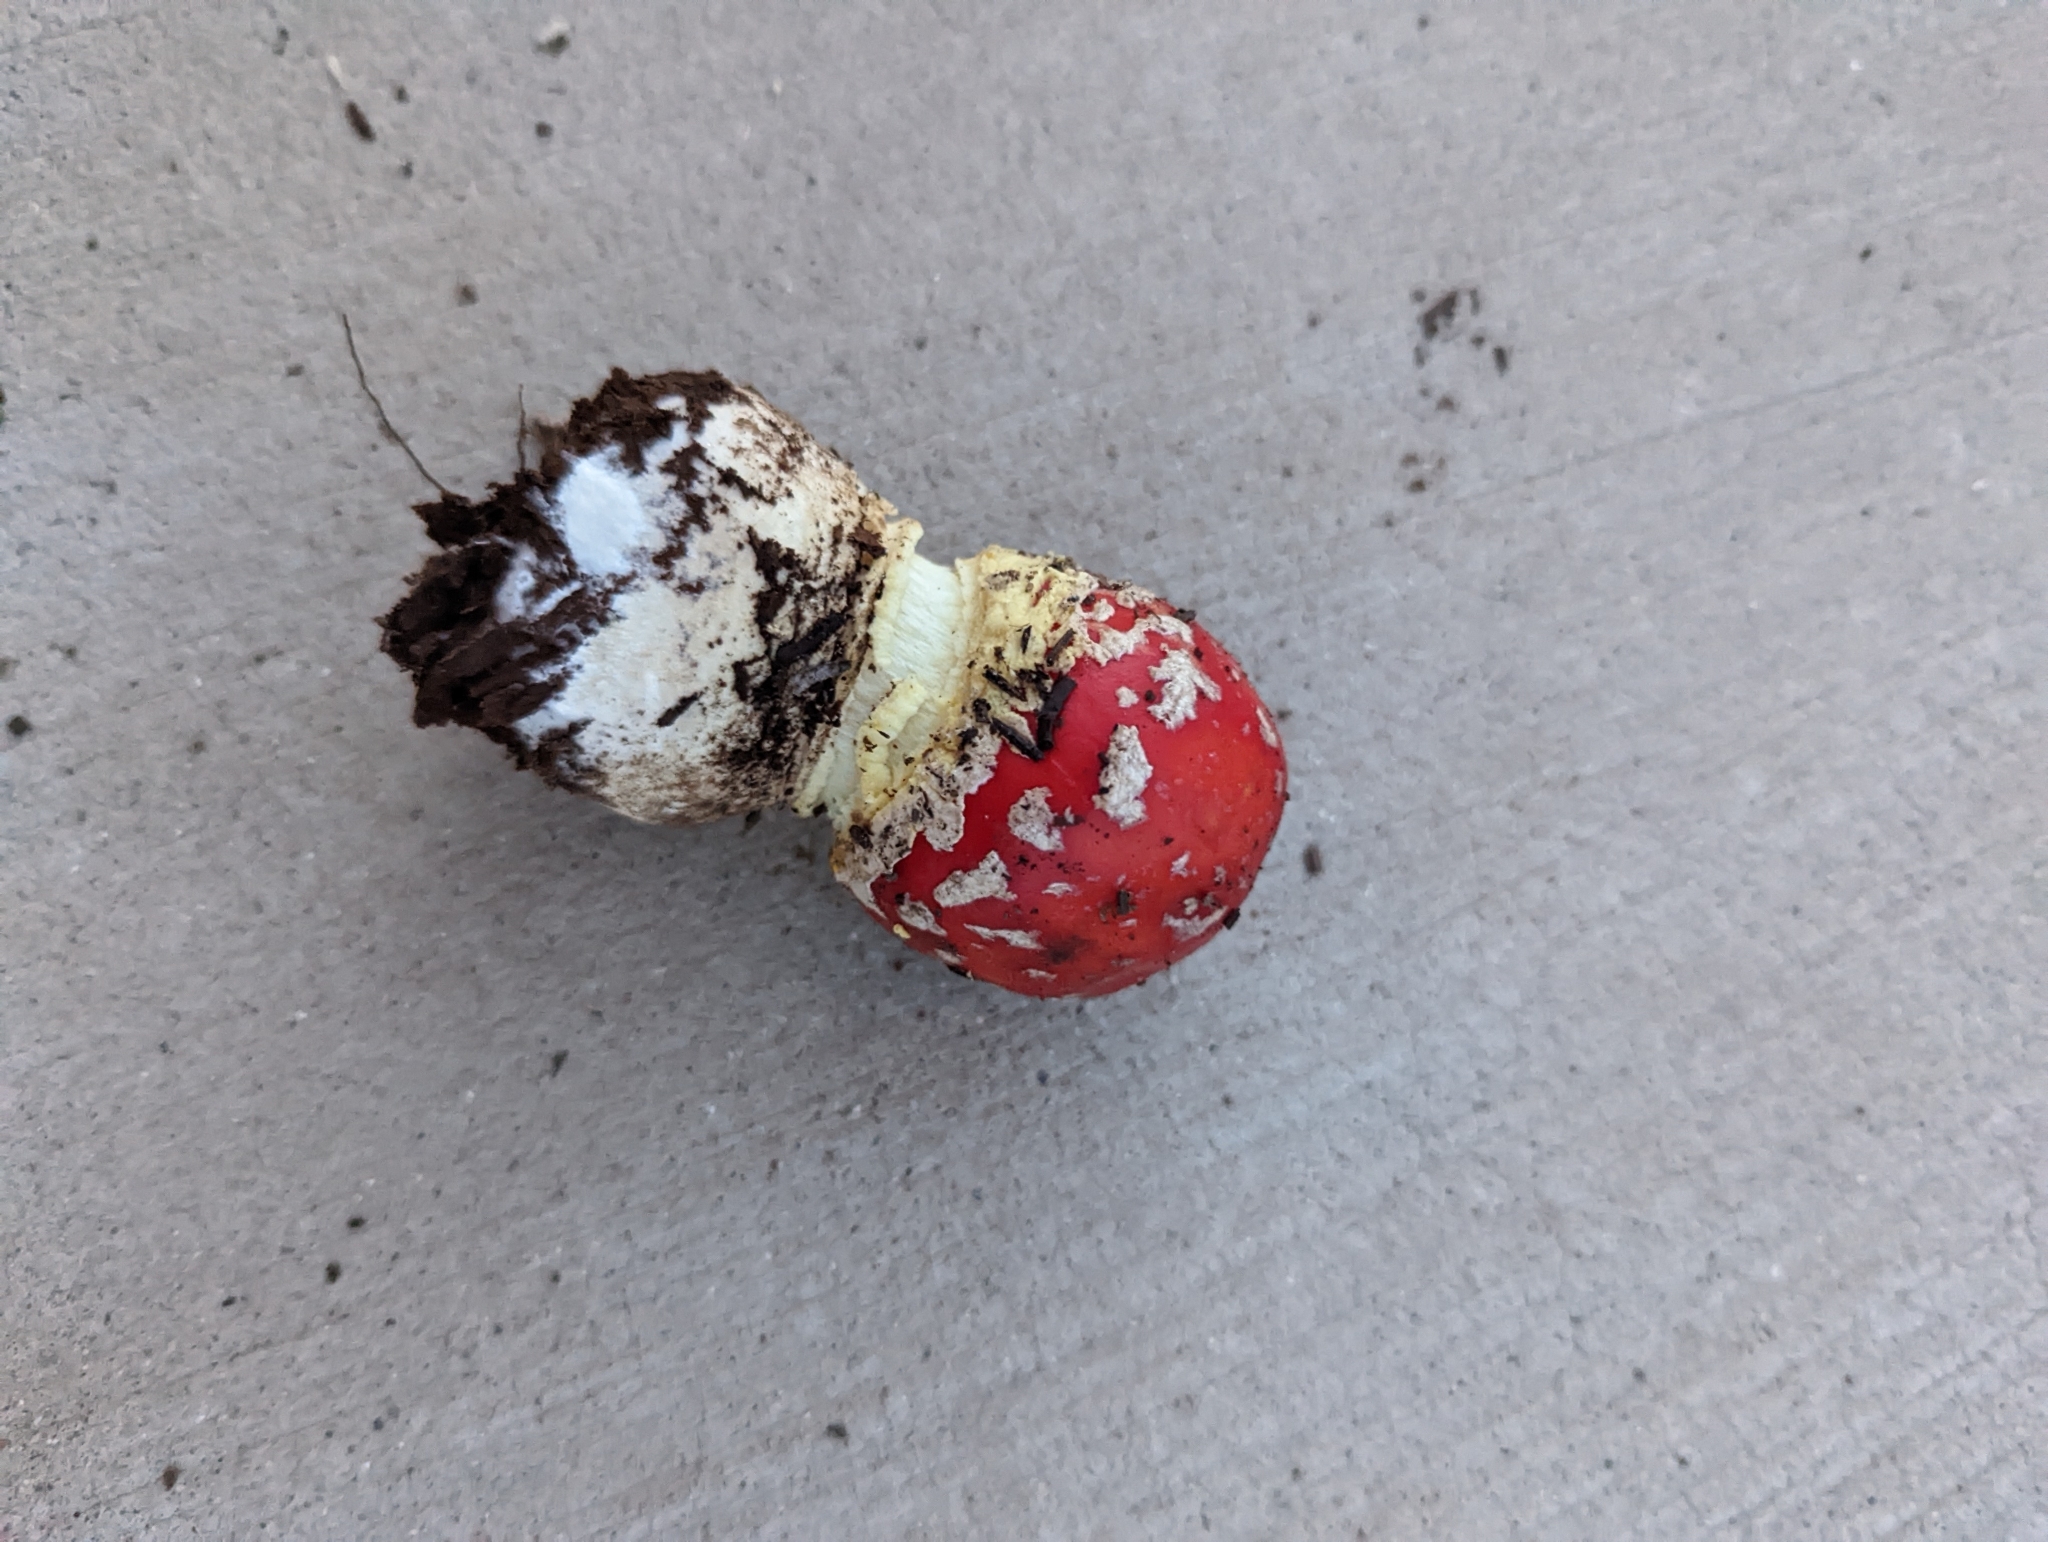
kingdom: Fungi
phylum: Basidiomycota
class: Agaricomycetes
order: Agaricales
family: Amanitaceae
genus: Amanita
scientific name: Amanita muscaria
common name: Fly agaric
